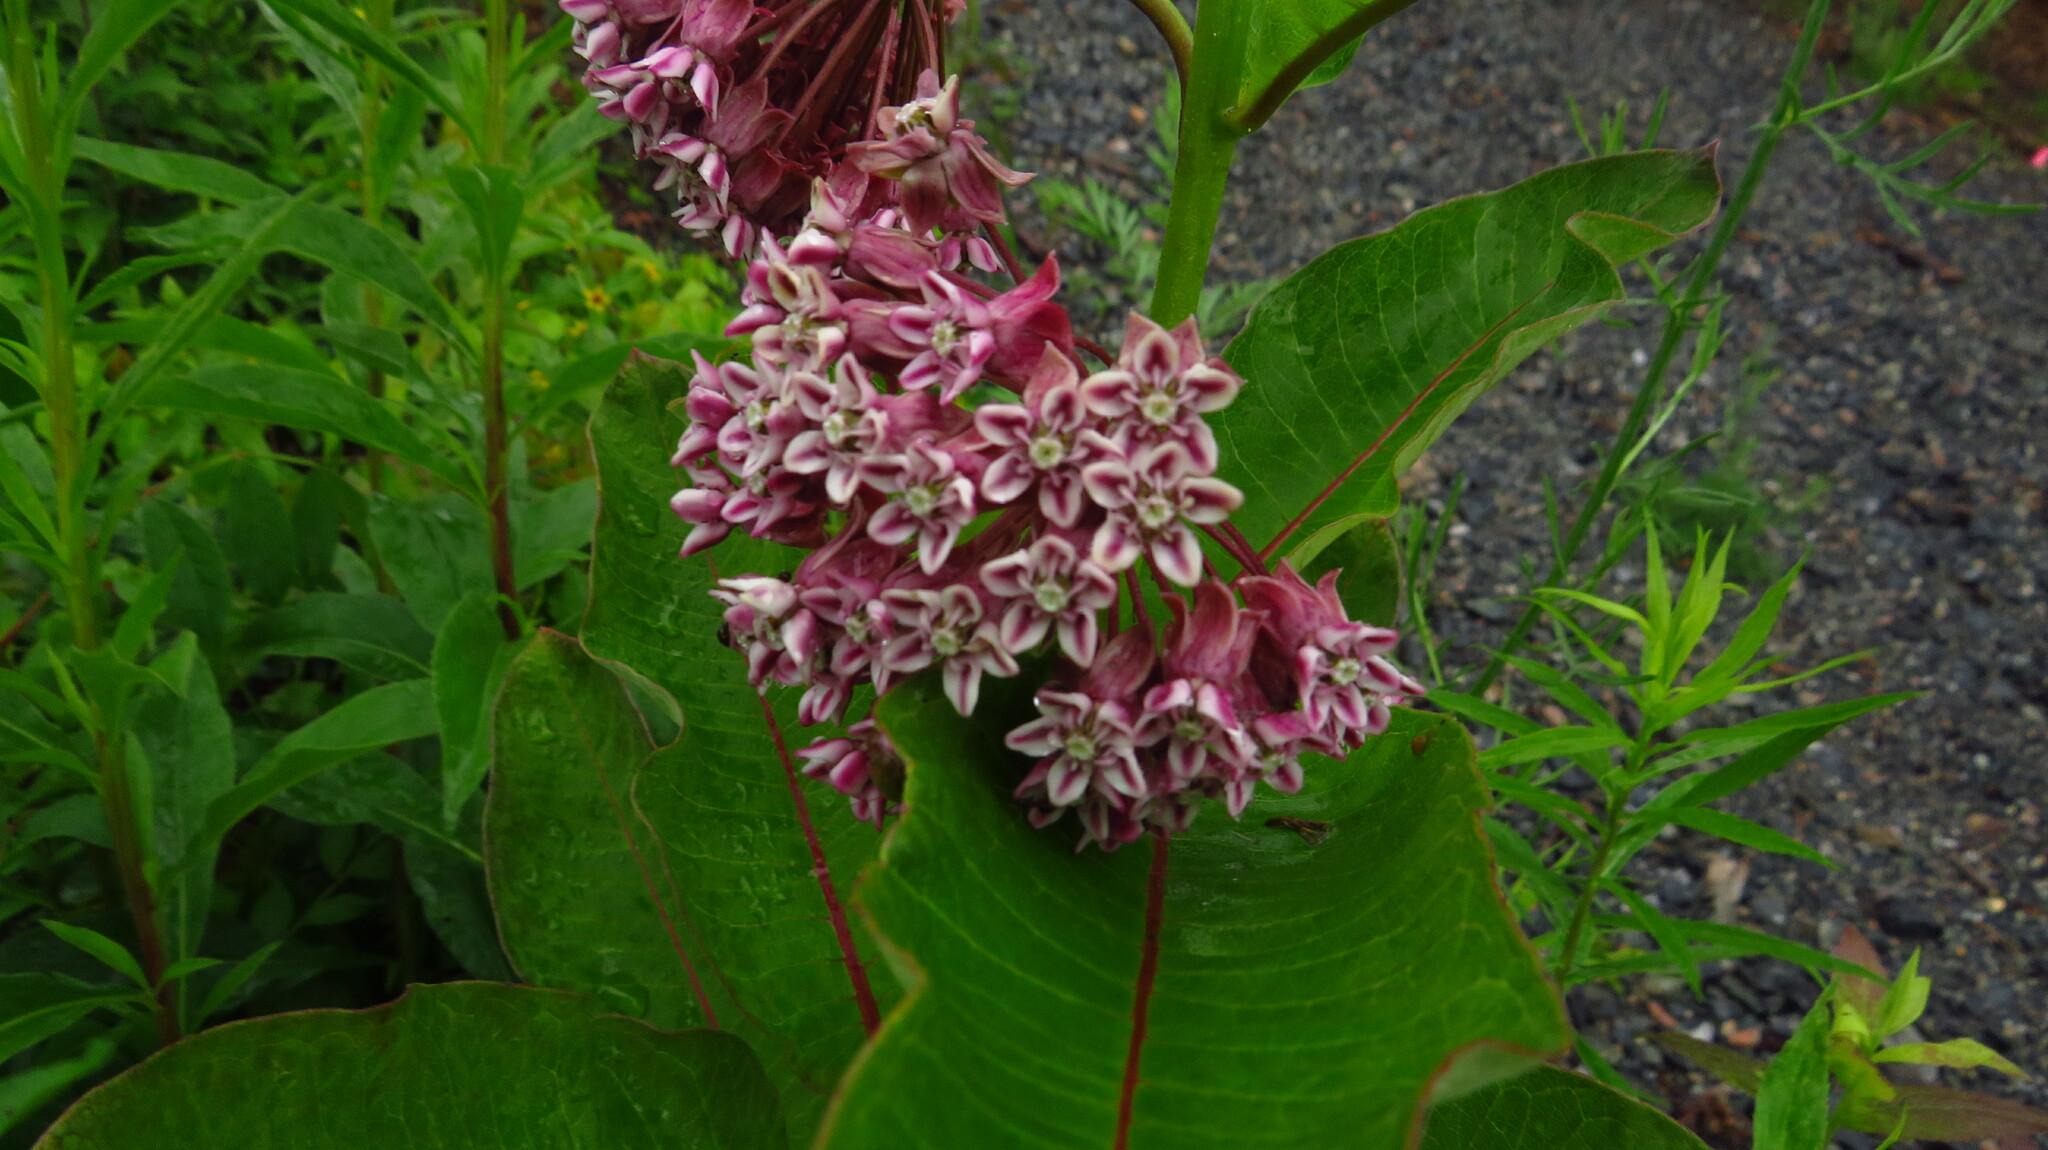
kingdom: Plantae
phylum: Tracheophyta
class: Magnoliopsida
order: Gentianales
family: Apocynaceae
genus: Asclepias
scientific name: Asclepias syriaca
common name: Common milkweed
